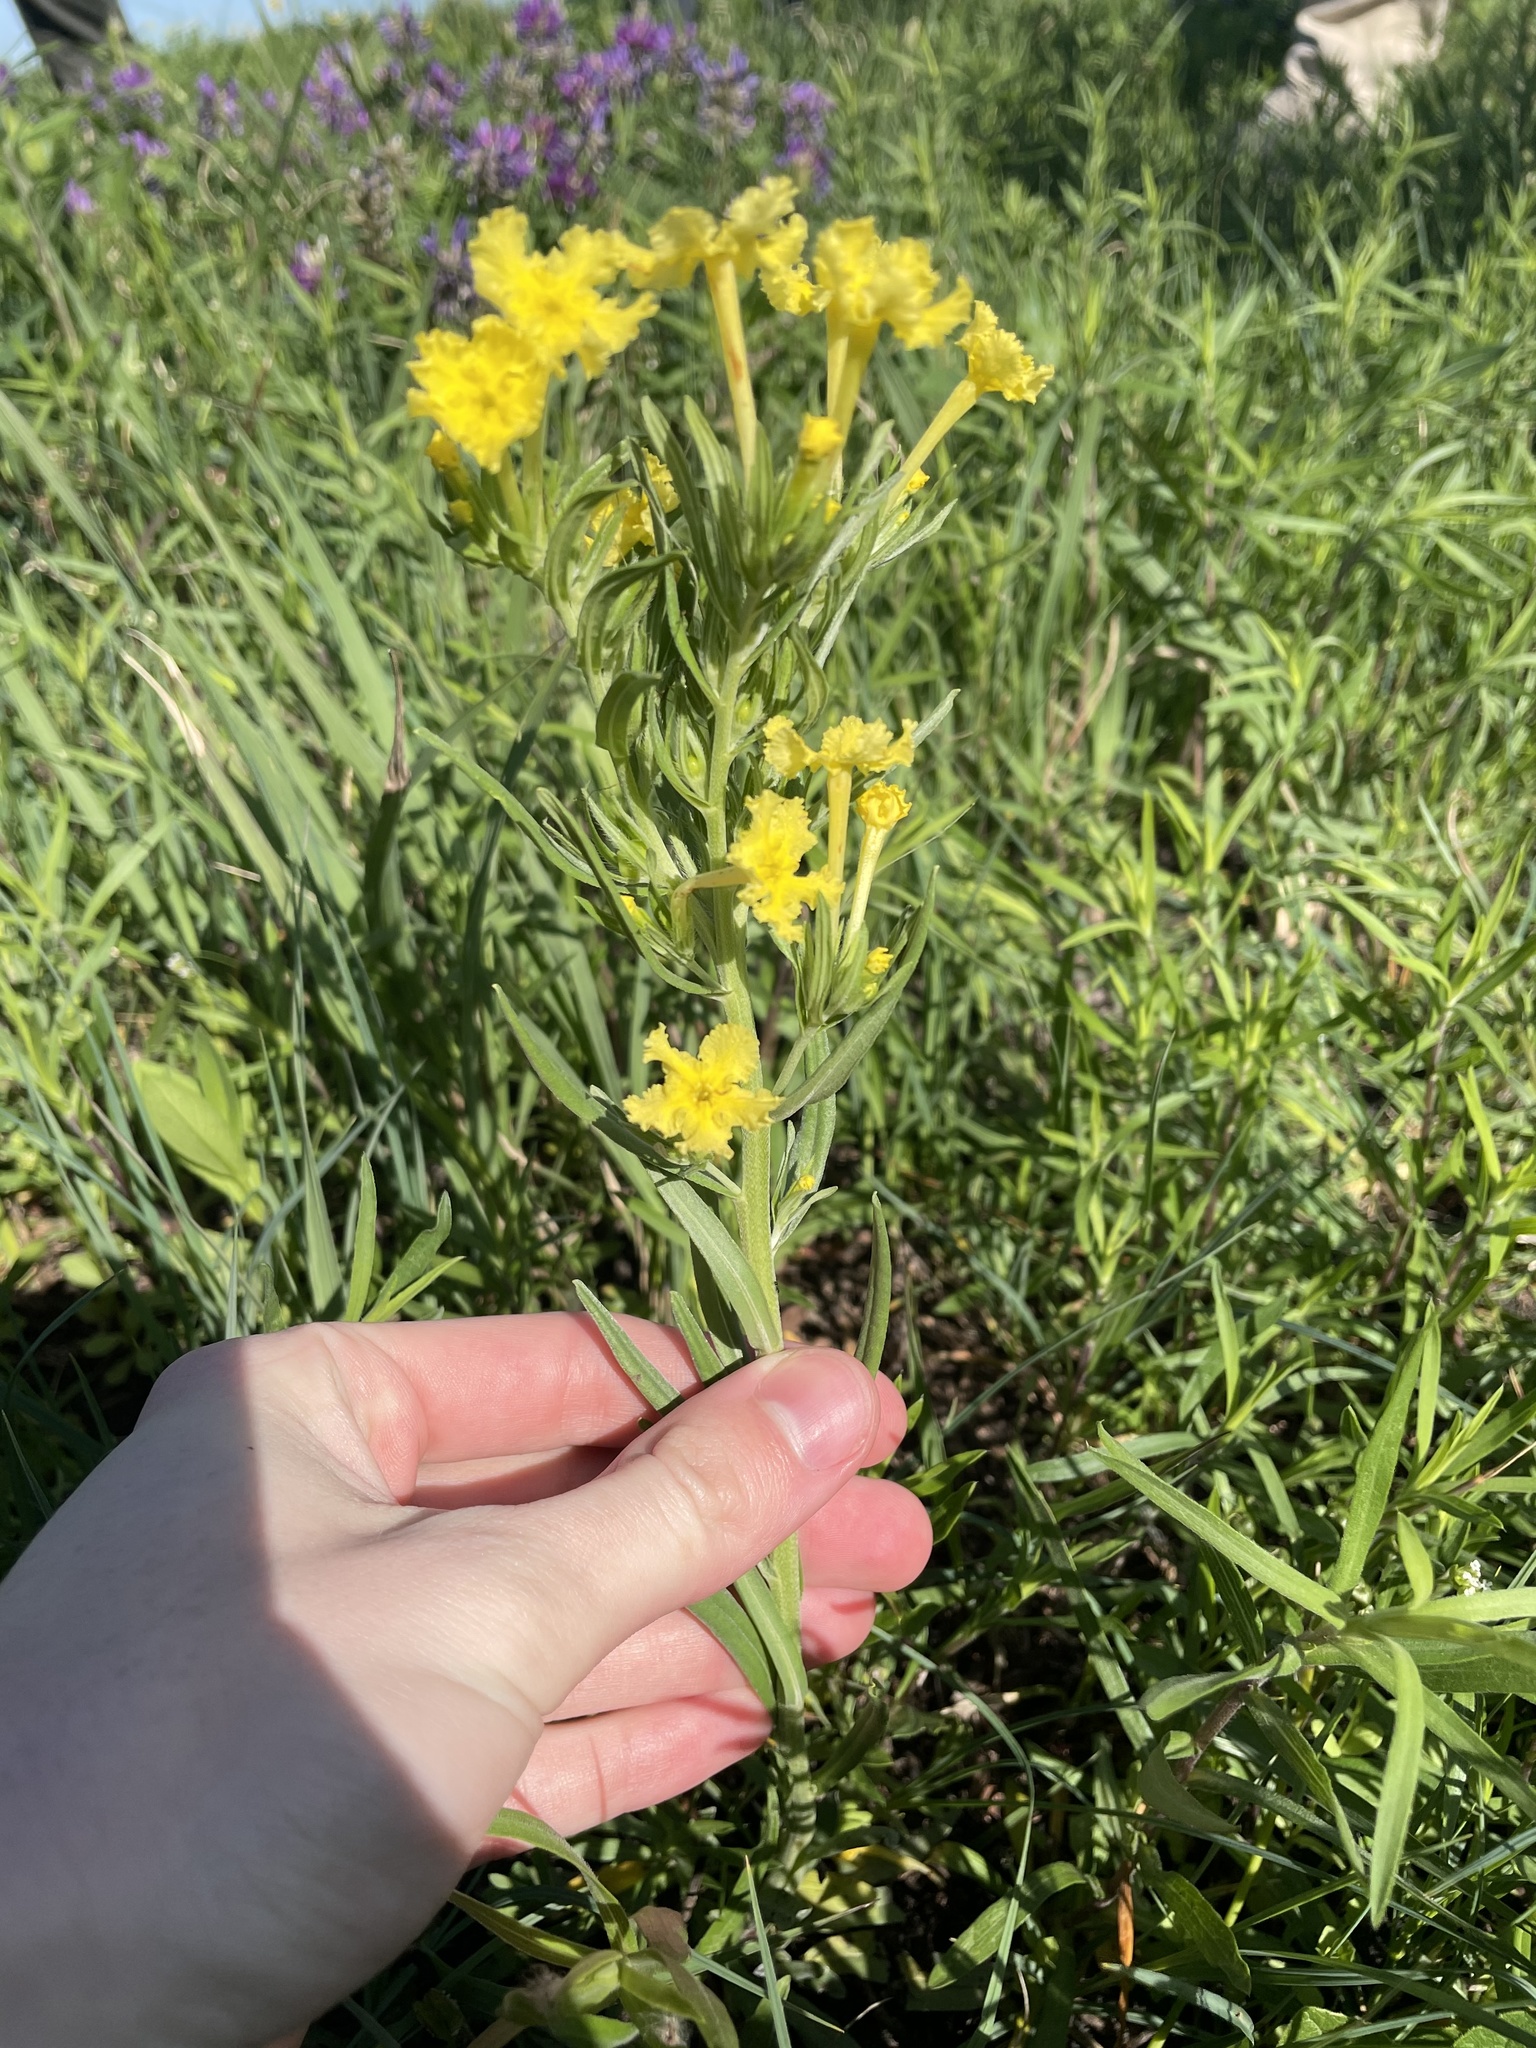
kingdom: Plantae
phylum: Tracheophyta
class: Magnoliopsida
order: Boraginales
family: Boraginaceae
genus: Lithospermum
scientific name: Lithospermum incisum
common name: Fringed gromwell
